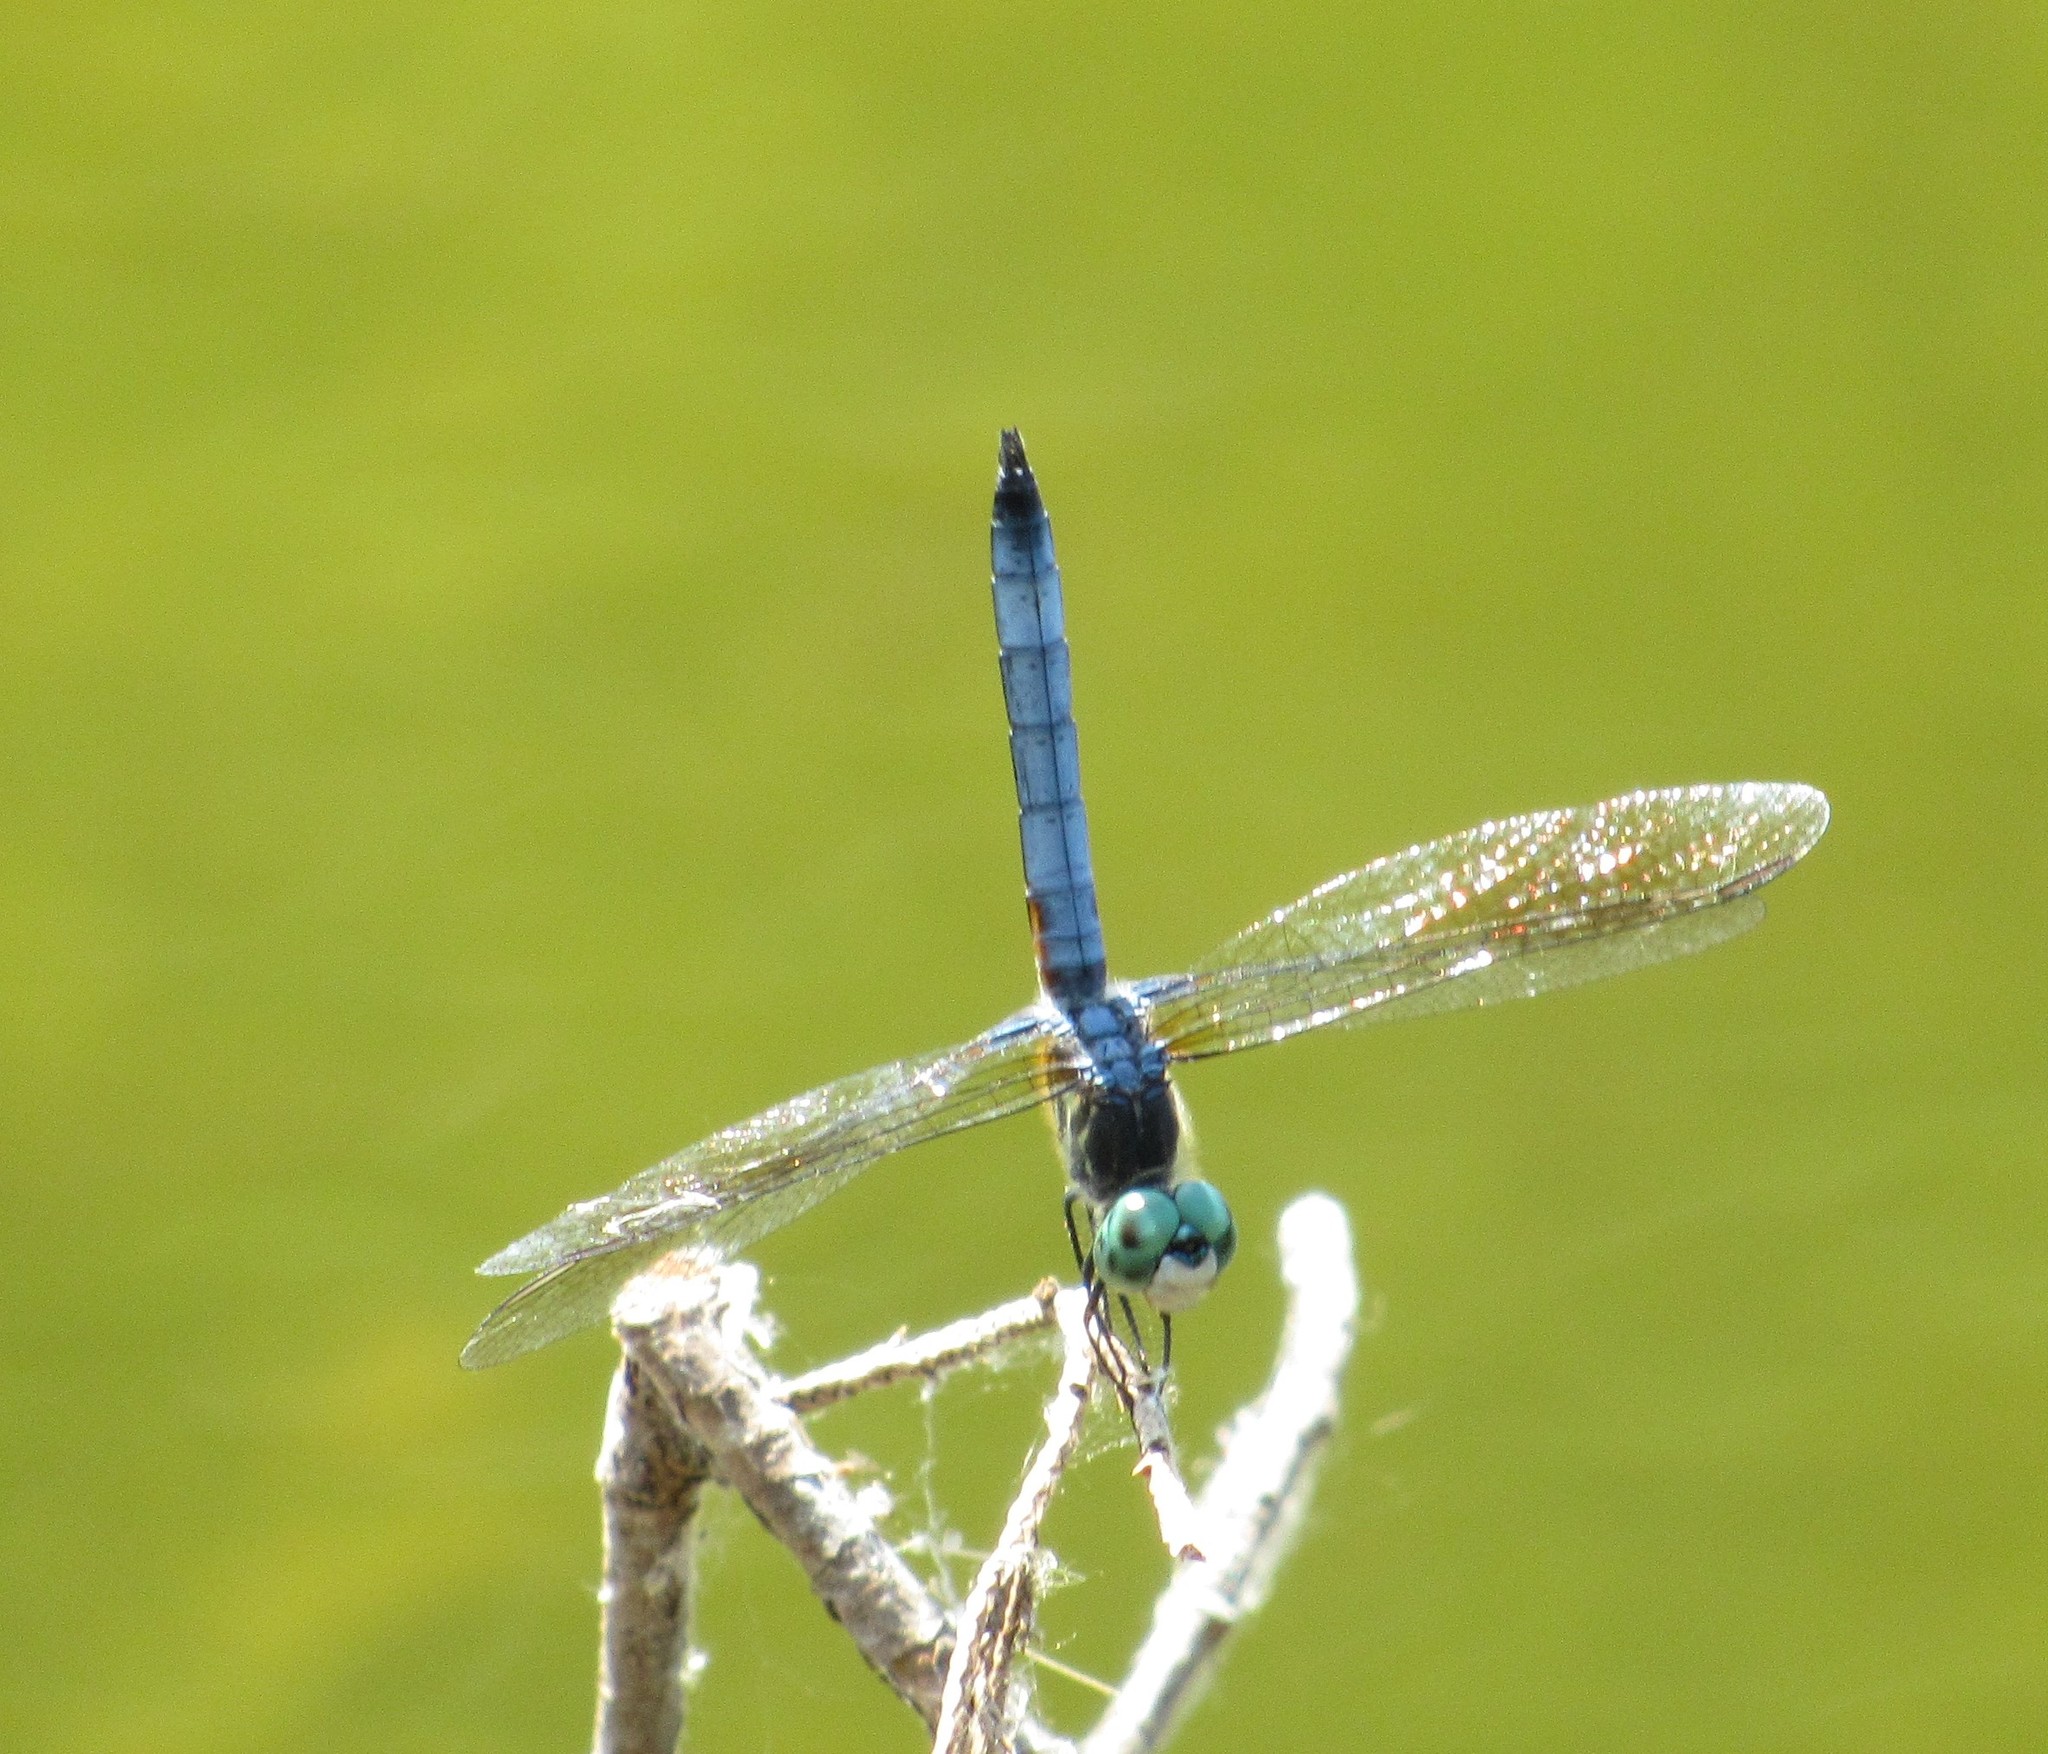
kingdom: Animalia
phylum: Arthropoda
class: Insecta
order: Odonata
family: Libellulidae
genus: Pachydiplax
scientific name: Pachydiplax longipennis
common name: Blue dasher
